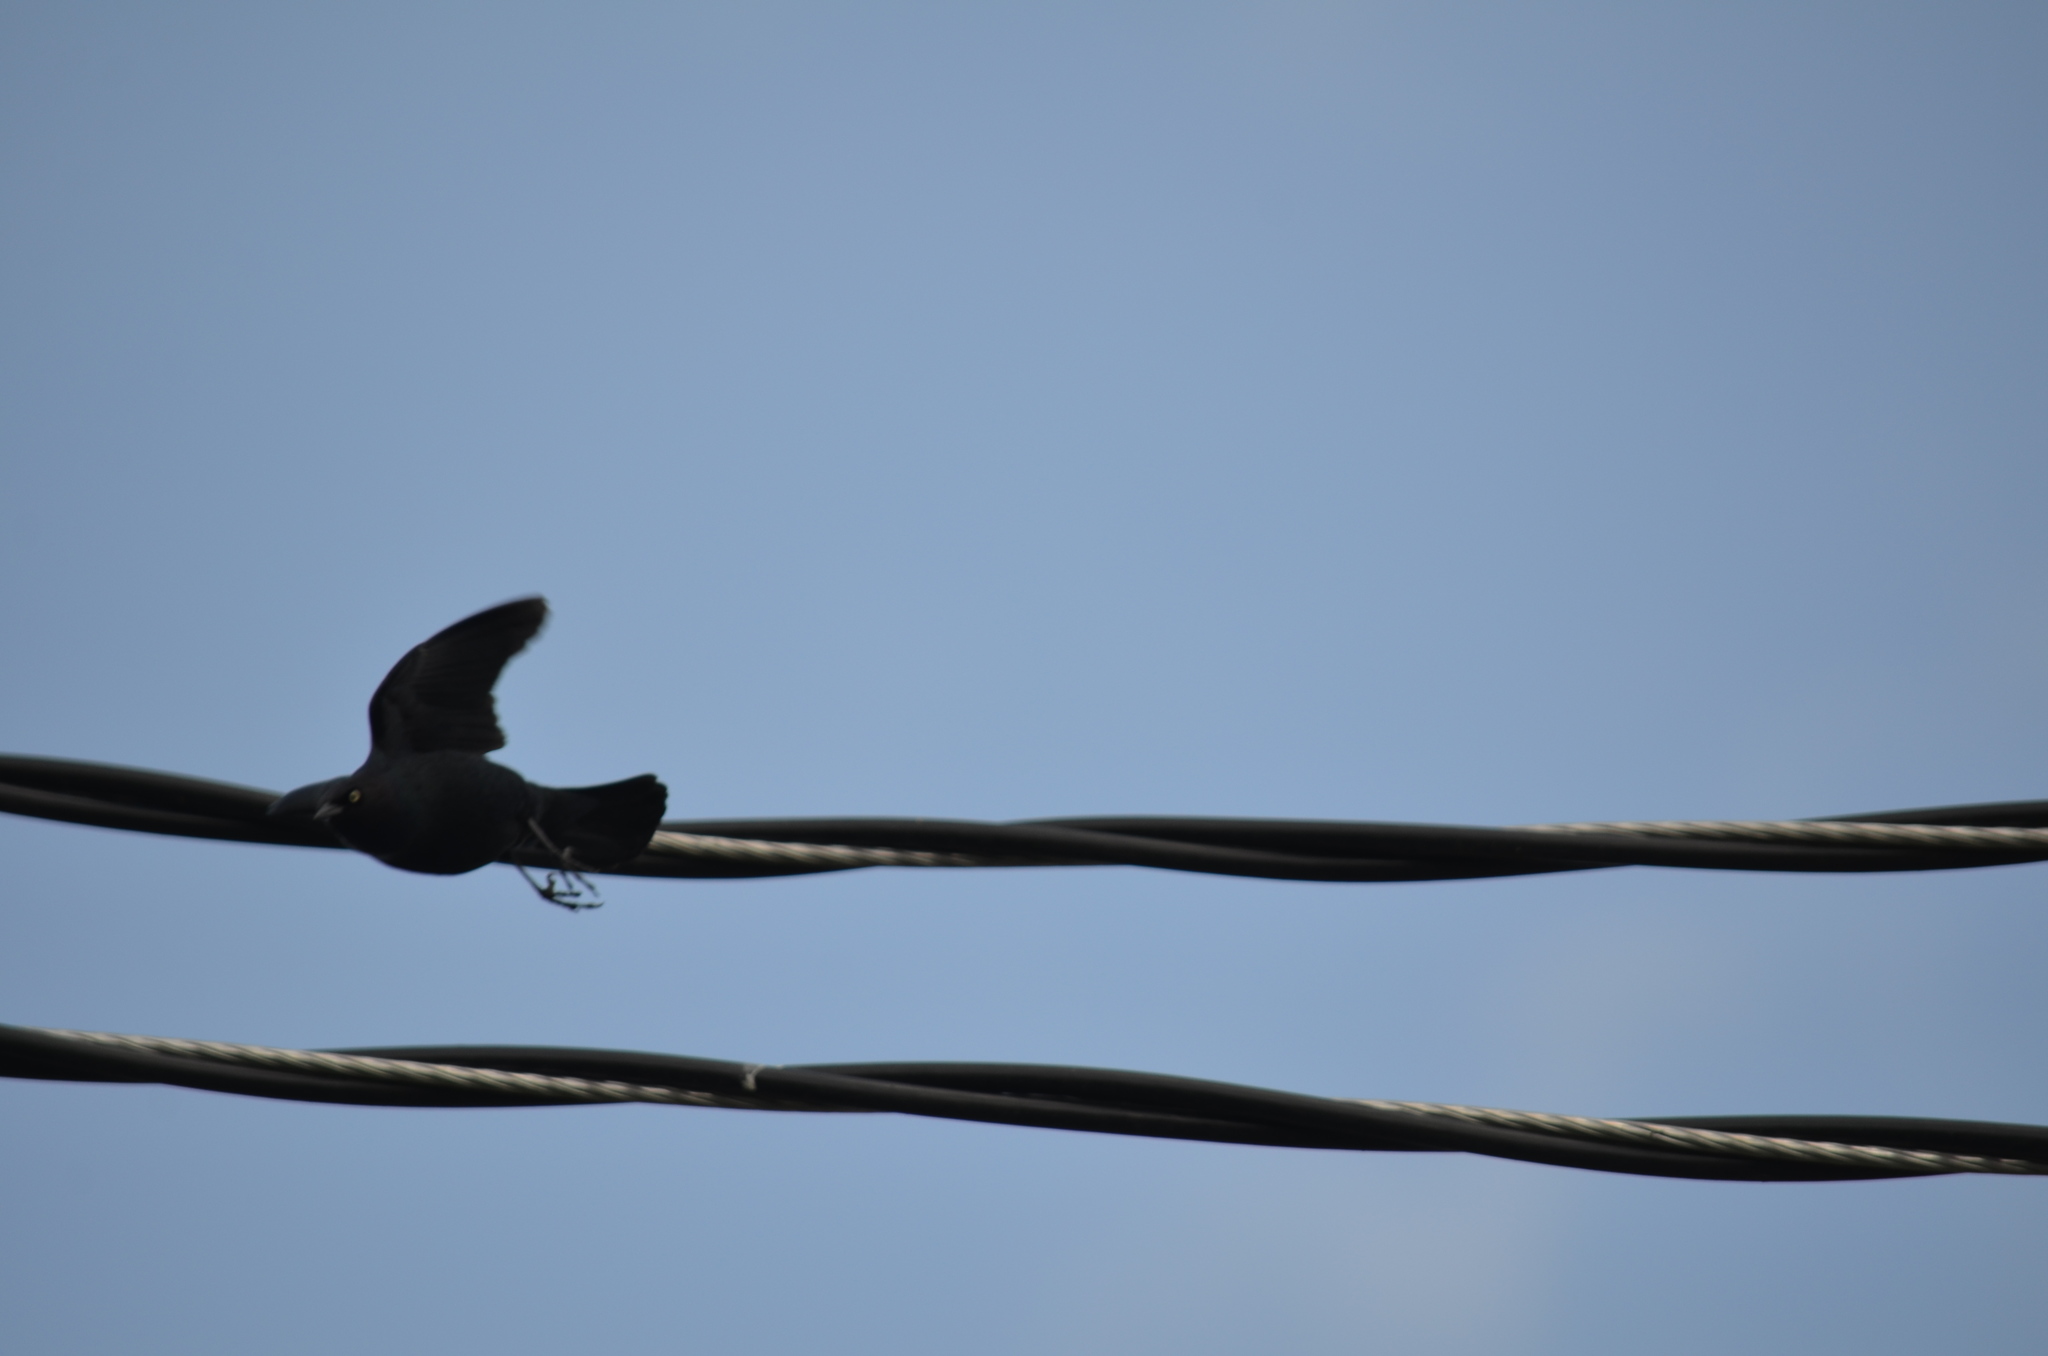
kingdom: Animalia
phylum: Chordata
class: Aves
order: Passeriformes
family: Icteridae
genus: Euphagus
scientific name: Euphagus cyanocephalus
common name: Brewer's blackbird
